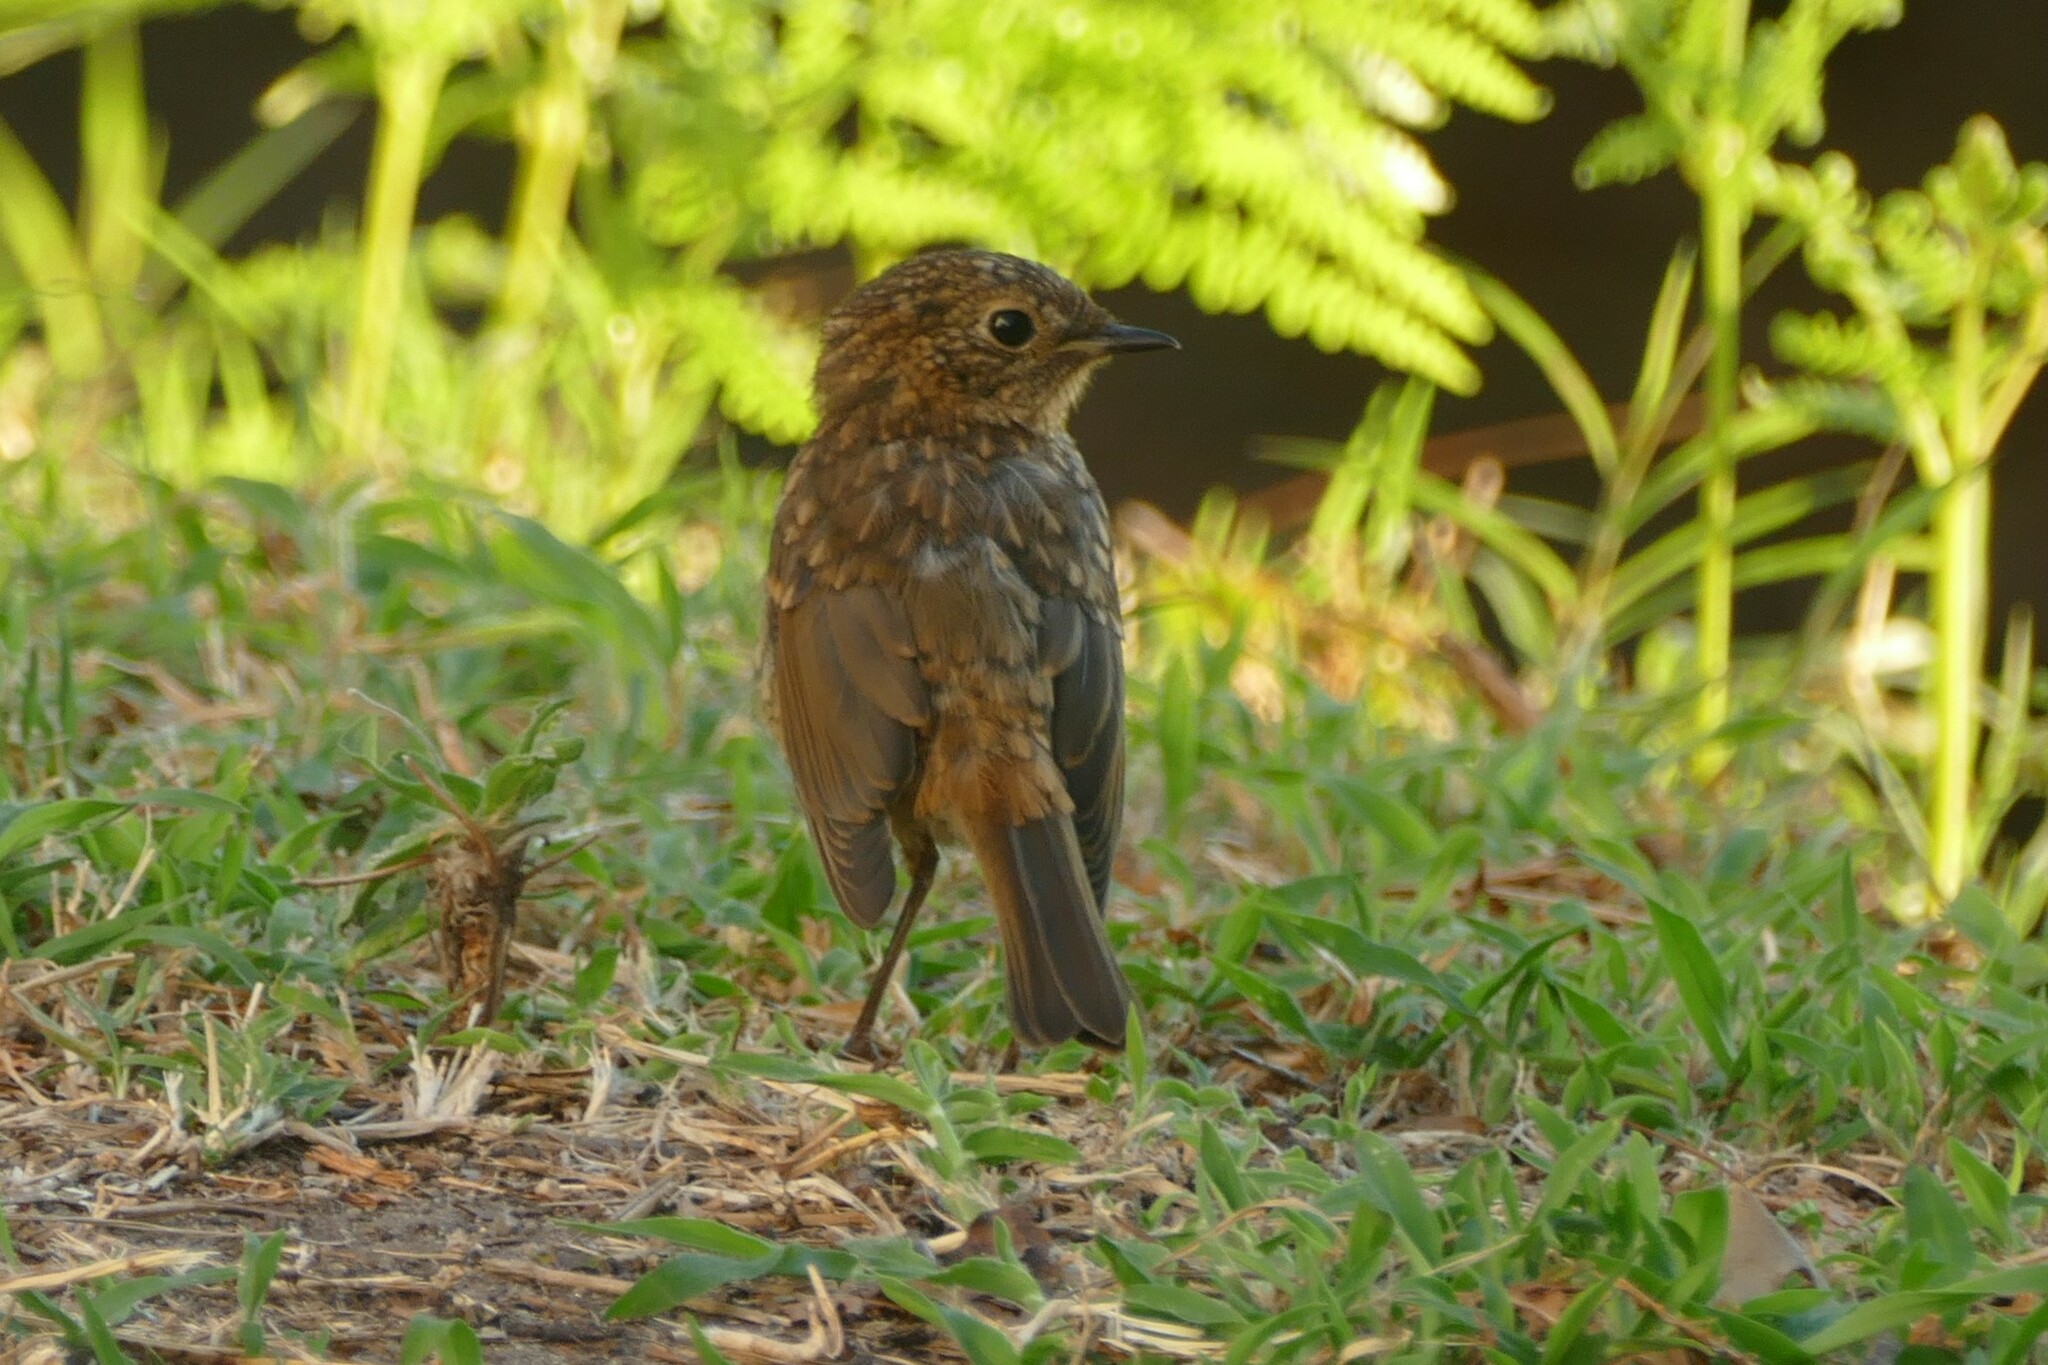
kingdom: Animalia
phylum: Chordata
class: Aves
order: Passeriformes
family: Muscicapidae
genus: Erithacus
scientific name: Erithacus rubecula
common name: European robin
